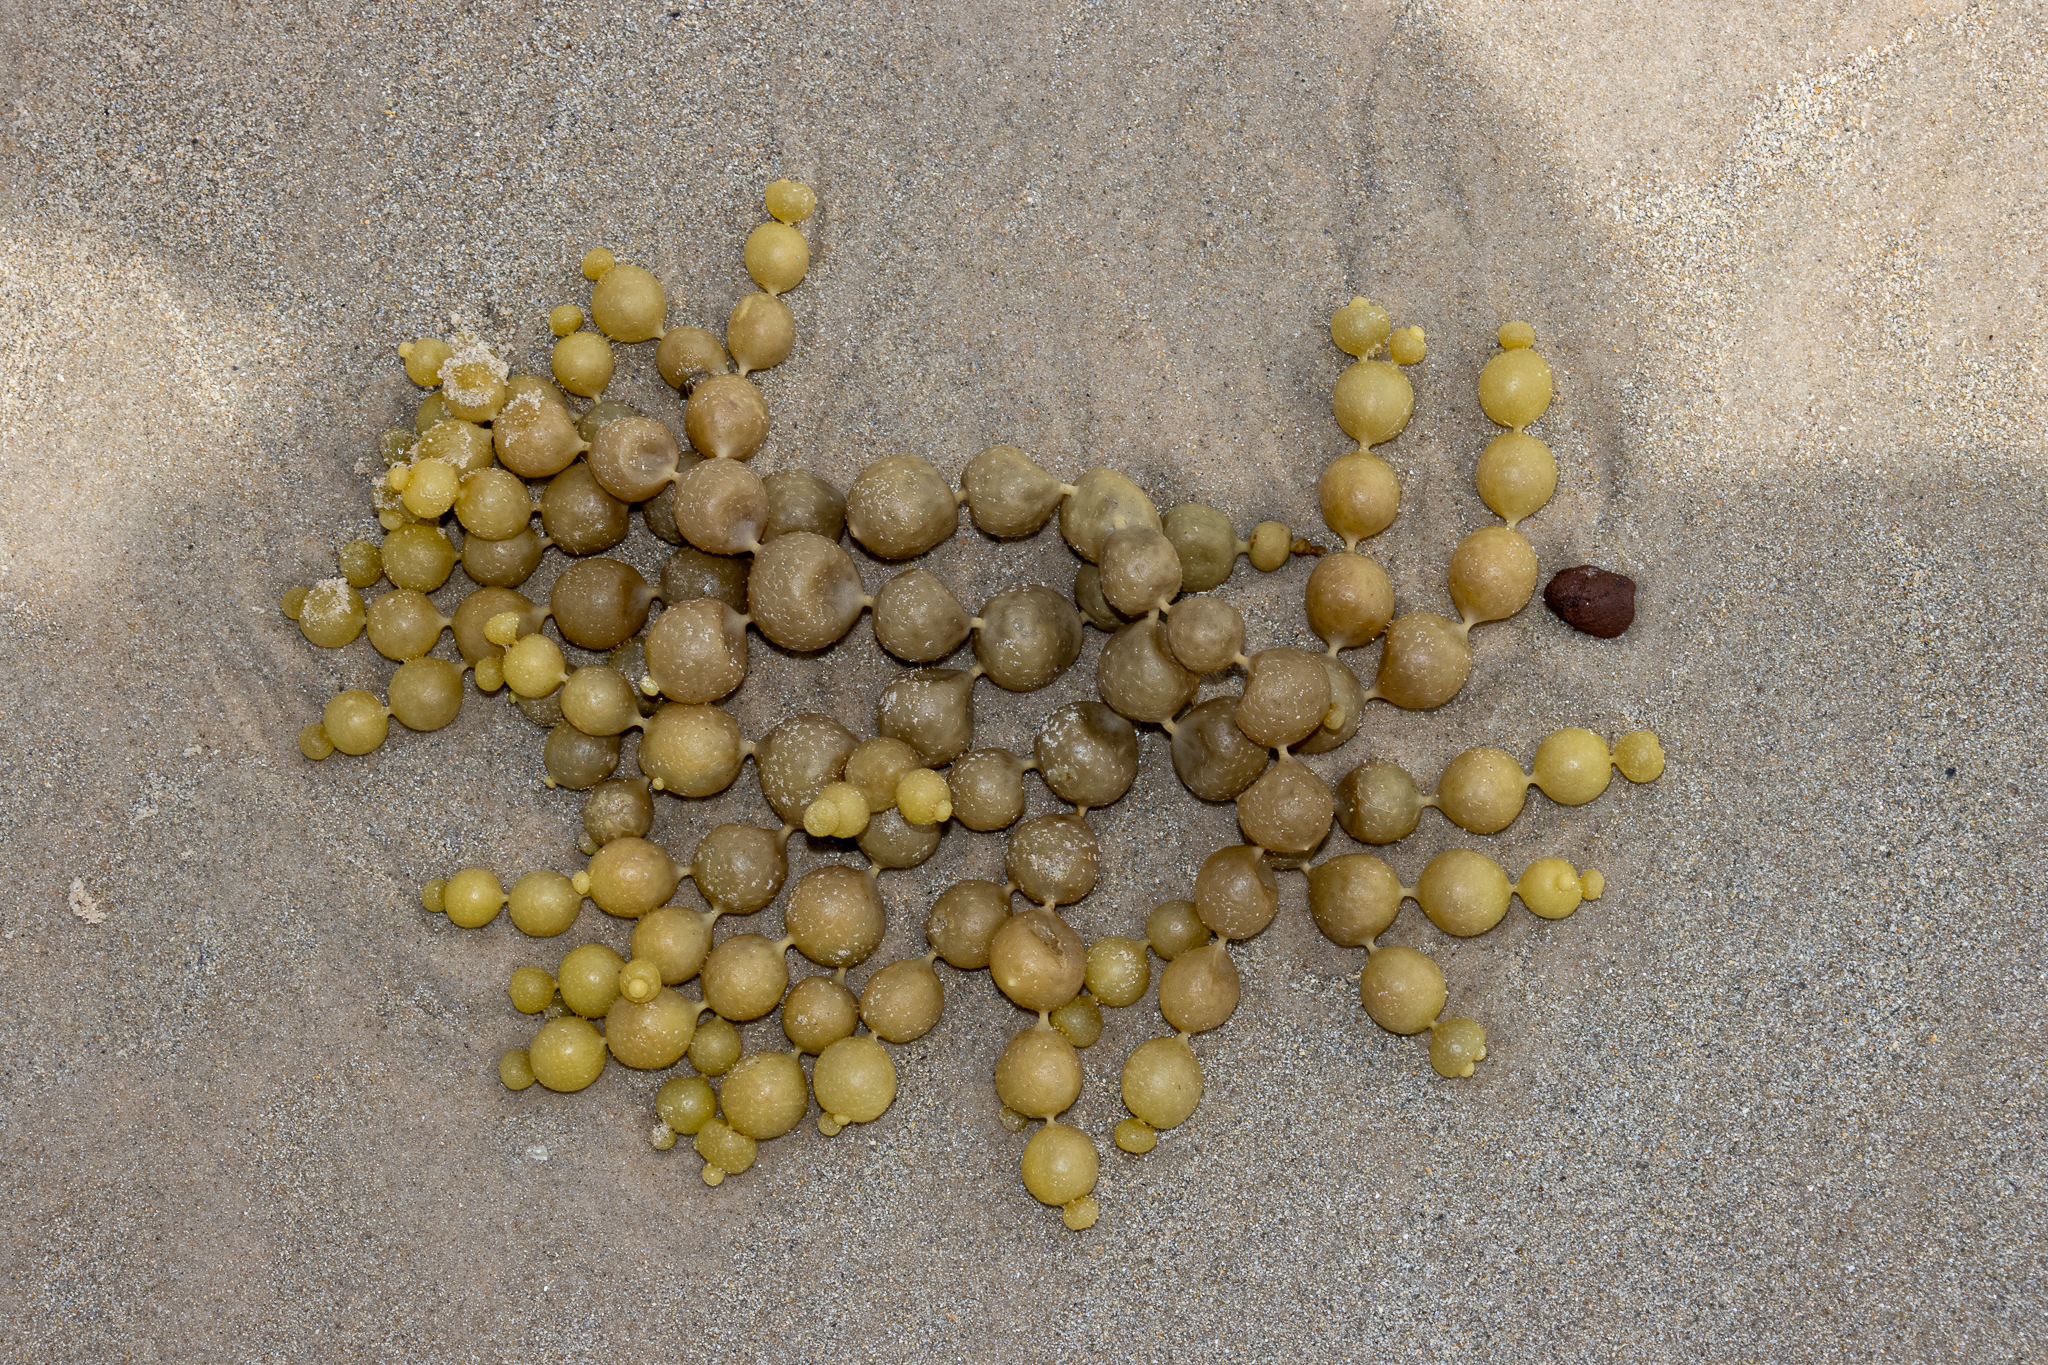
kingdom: Chromista
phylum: Ochrophyta
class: Phaeophyceae
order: Fucales
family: Hormosiraceae
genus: Hormosira
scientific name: Hormosira banksii
